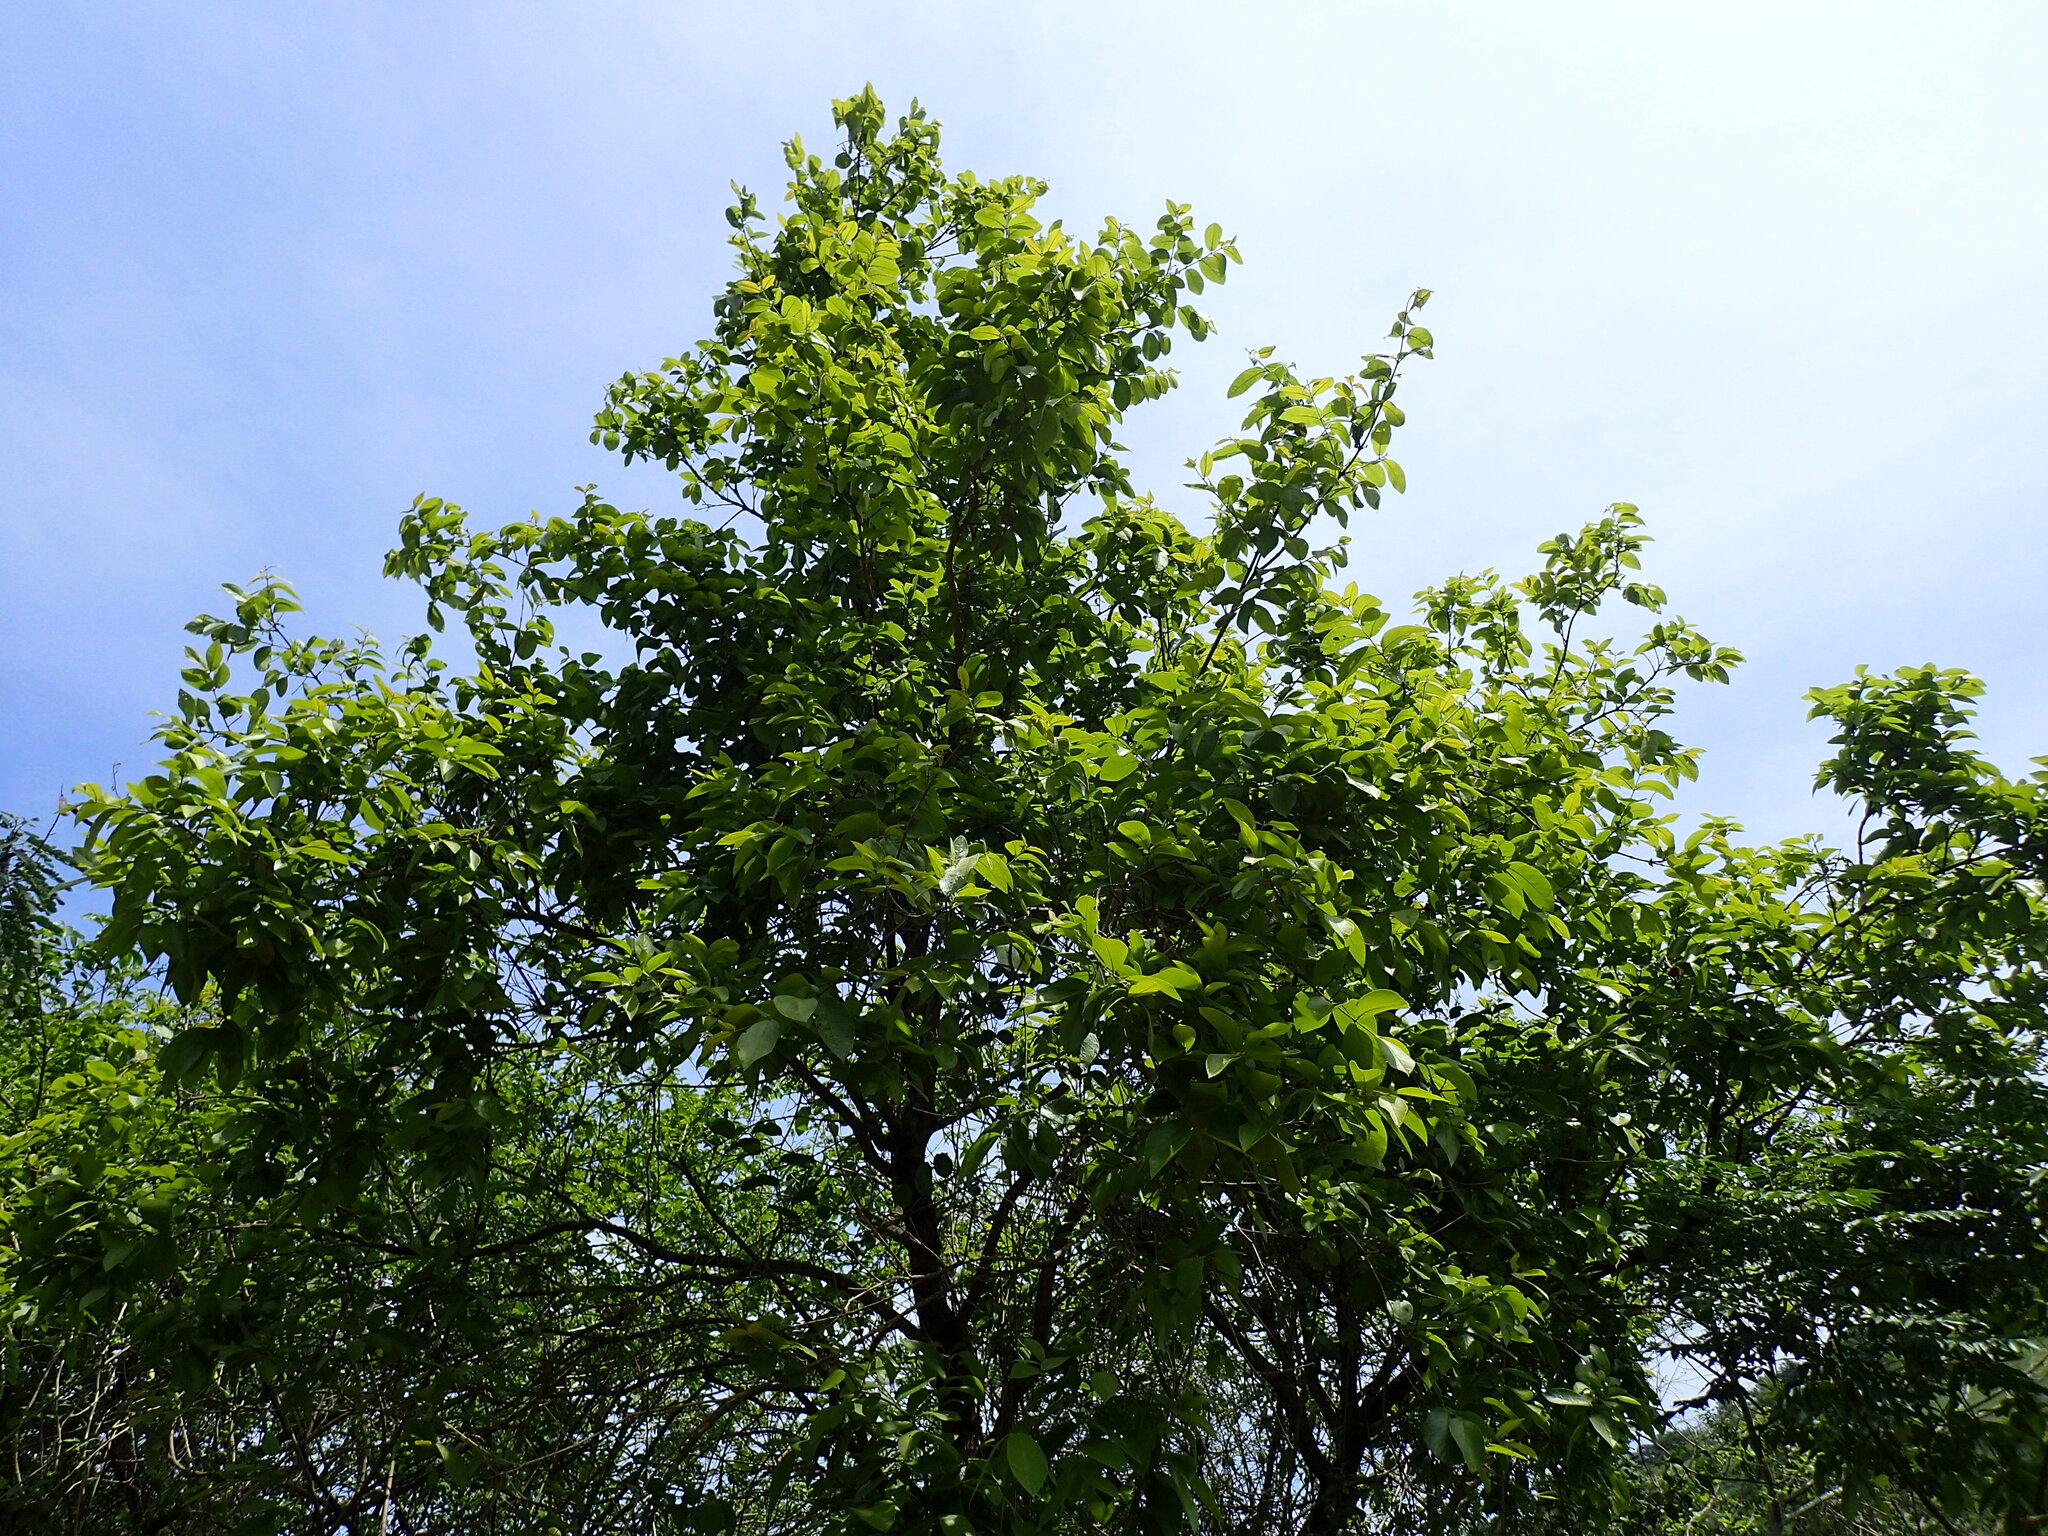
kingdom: Plantae
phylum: Tracheophyta
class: Magnoliopsida
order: Myrtales
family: Combretaceae
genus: Combretum
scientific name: Combretum molle
